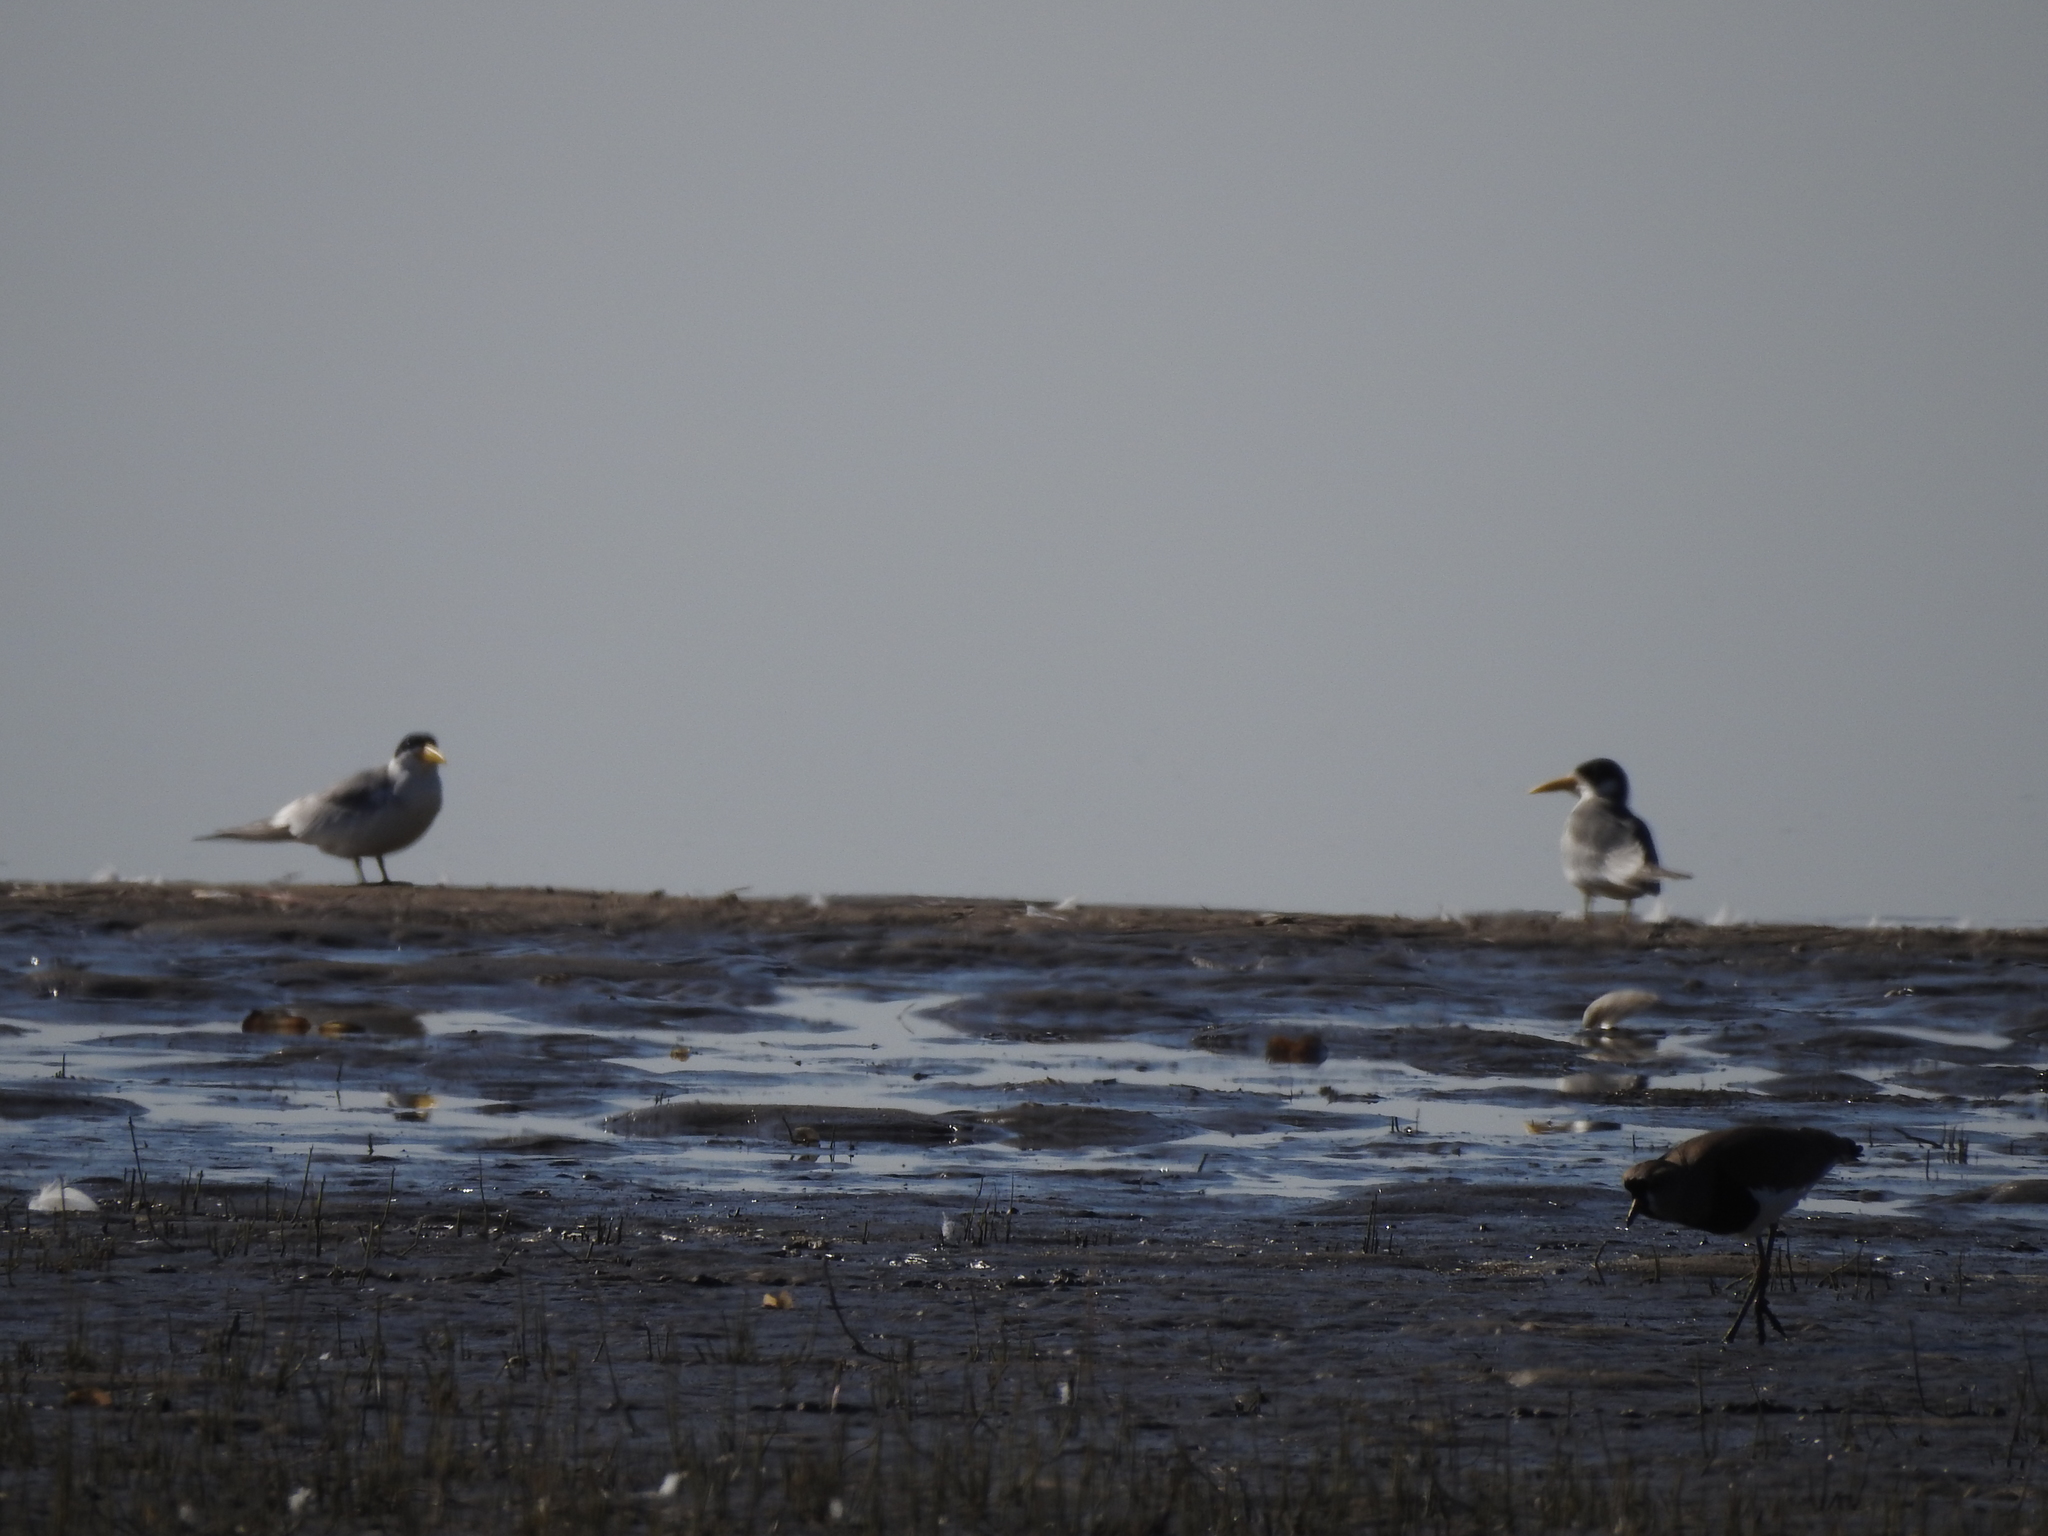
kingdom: Animalia
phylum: Chordata
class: Aves
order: Charadriiformes
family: Charadriidae
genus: Vanellus
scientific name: Vanellus chilensis
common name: Southern lapwing
